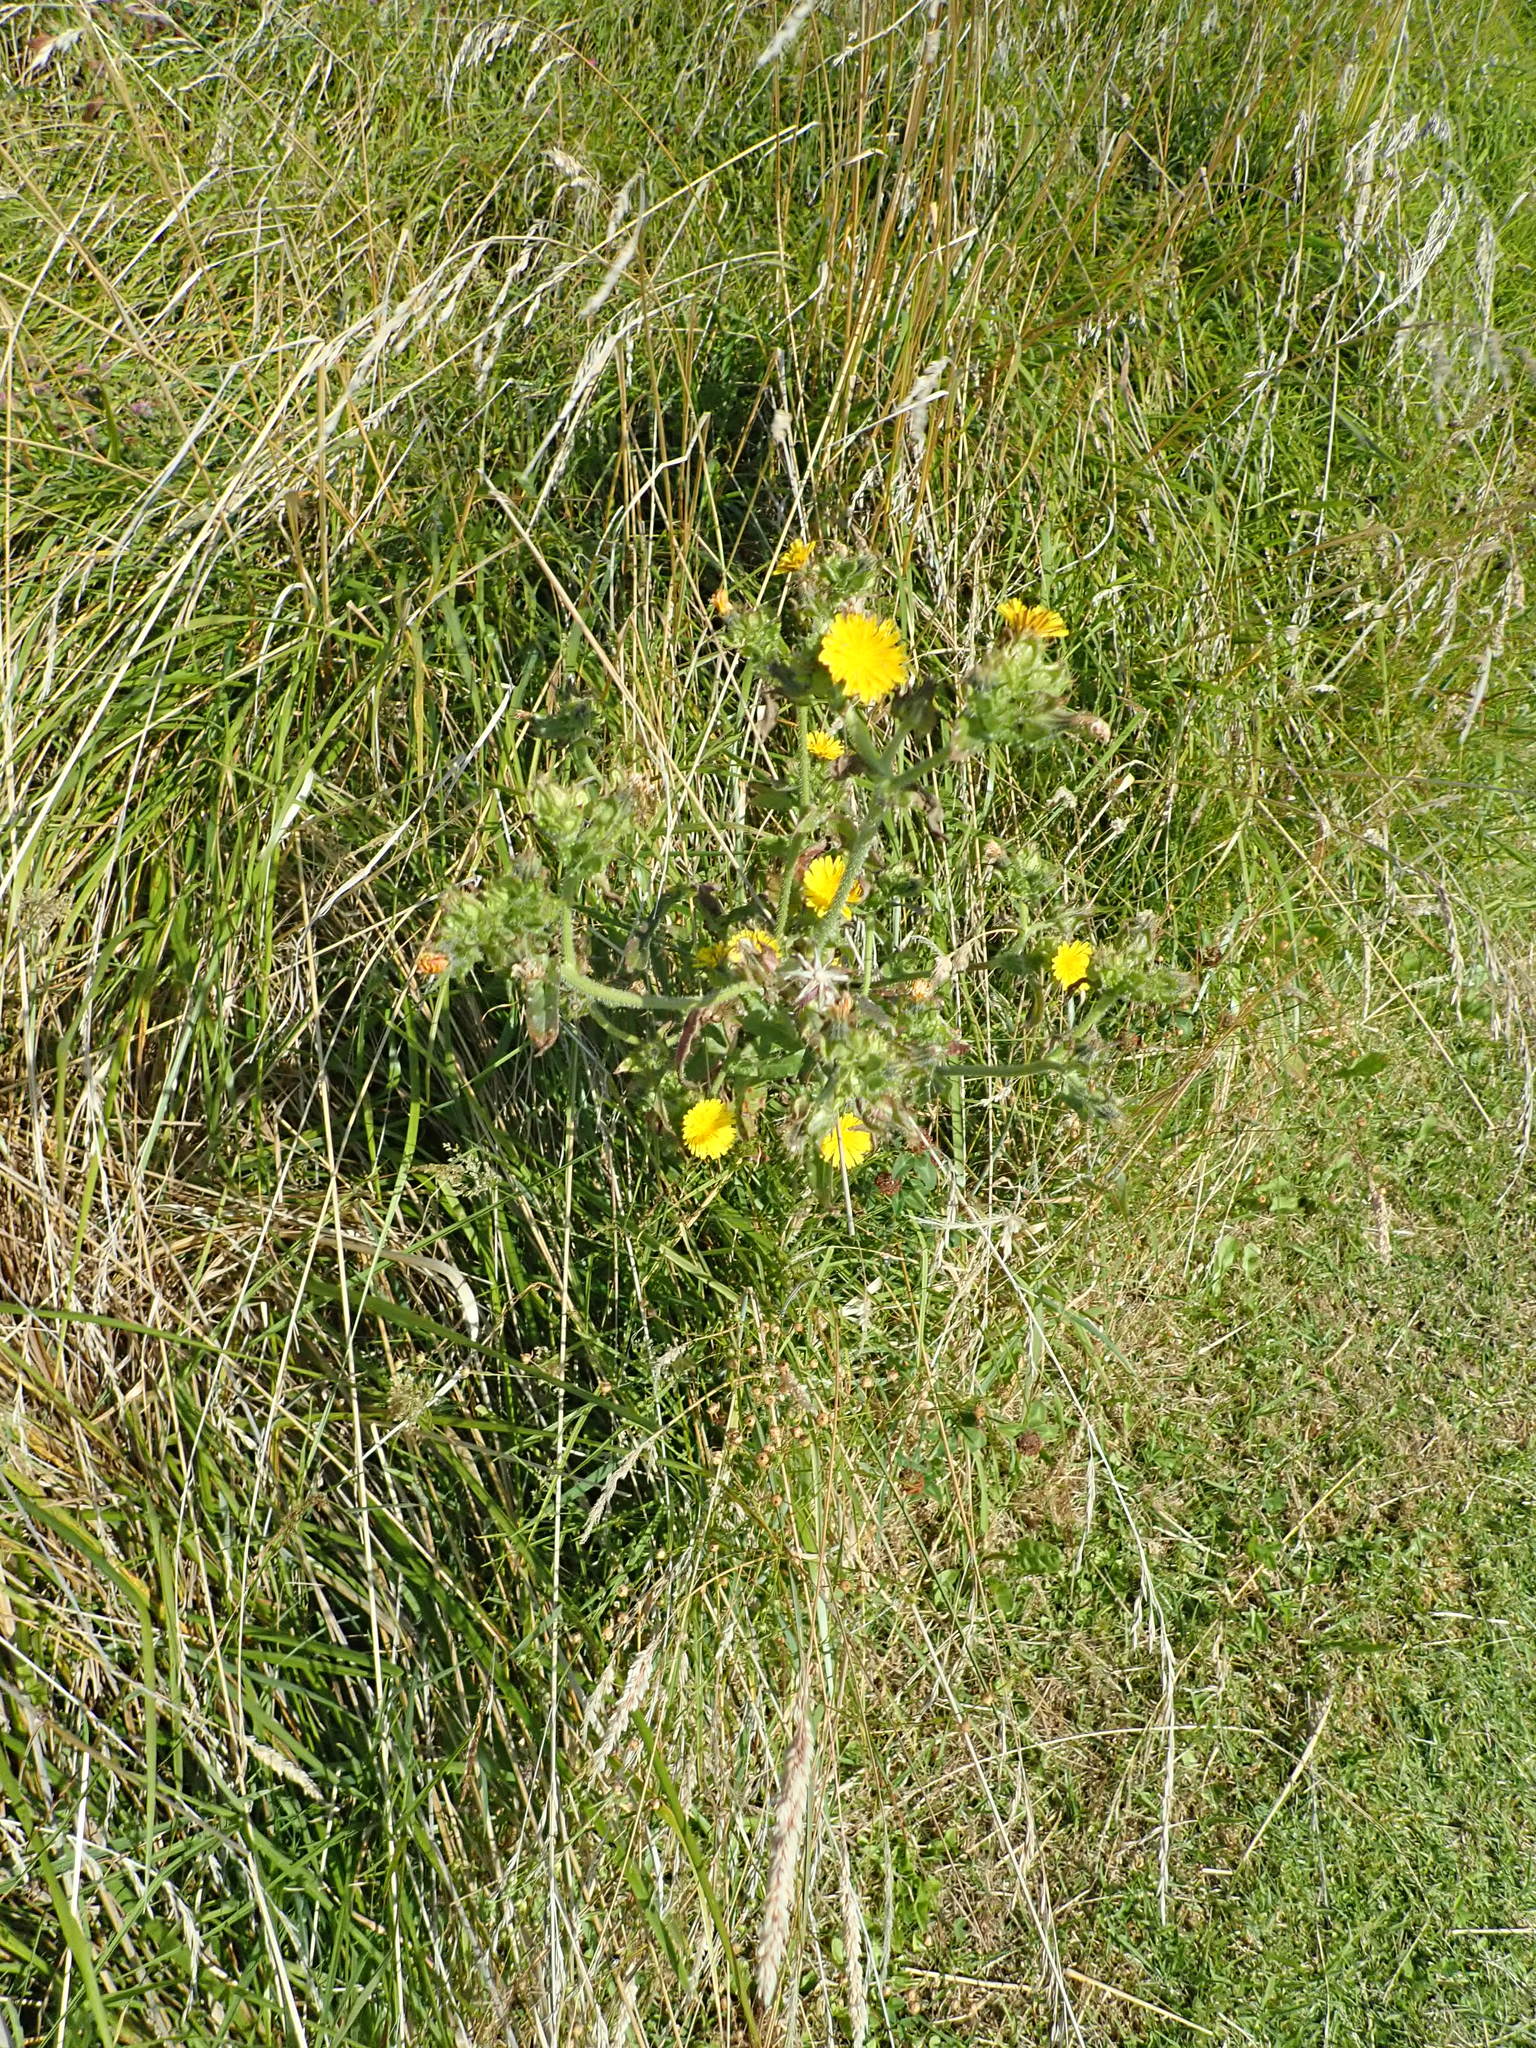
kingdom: Plantae
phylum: Tracheophyta
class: Magnoliopsida
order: Asterales
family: Asteraceae
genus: Helminthotheca
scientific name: Helminthotheca echioides
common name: Ox-tongue
